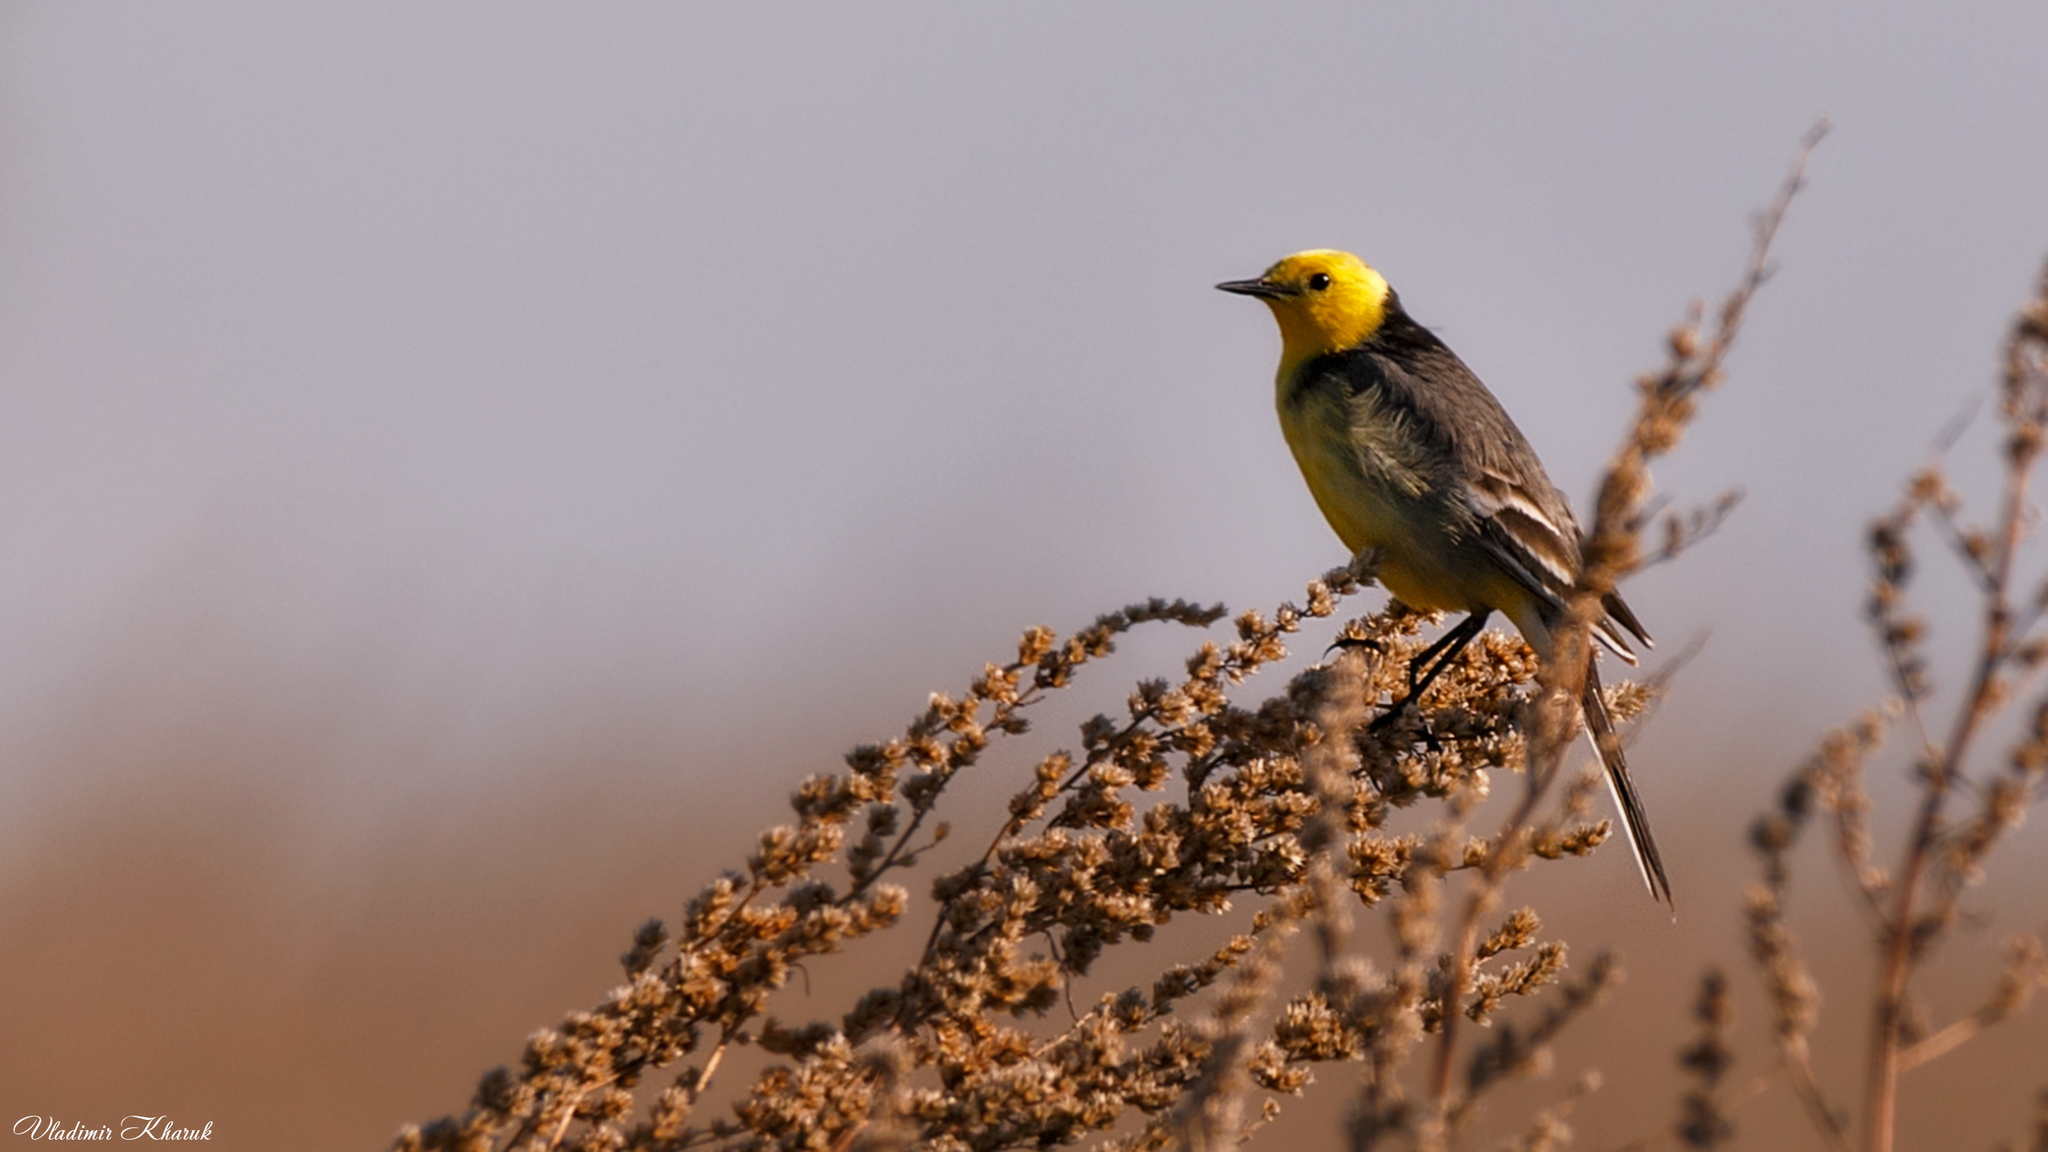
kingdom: Animalia
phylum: Chordata
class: Aves
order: Passeriformes
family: Motacillidae
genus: Motacilla
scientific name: Motacilla citreola
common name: Citrine wagtail
